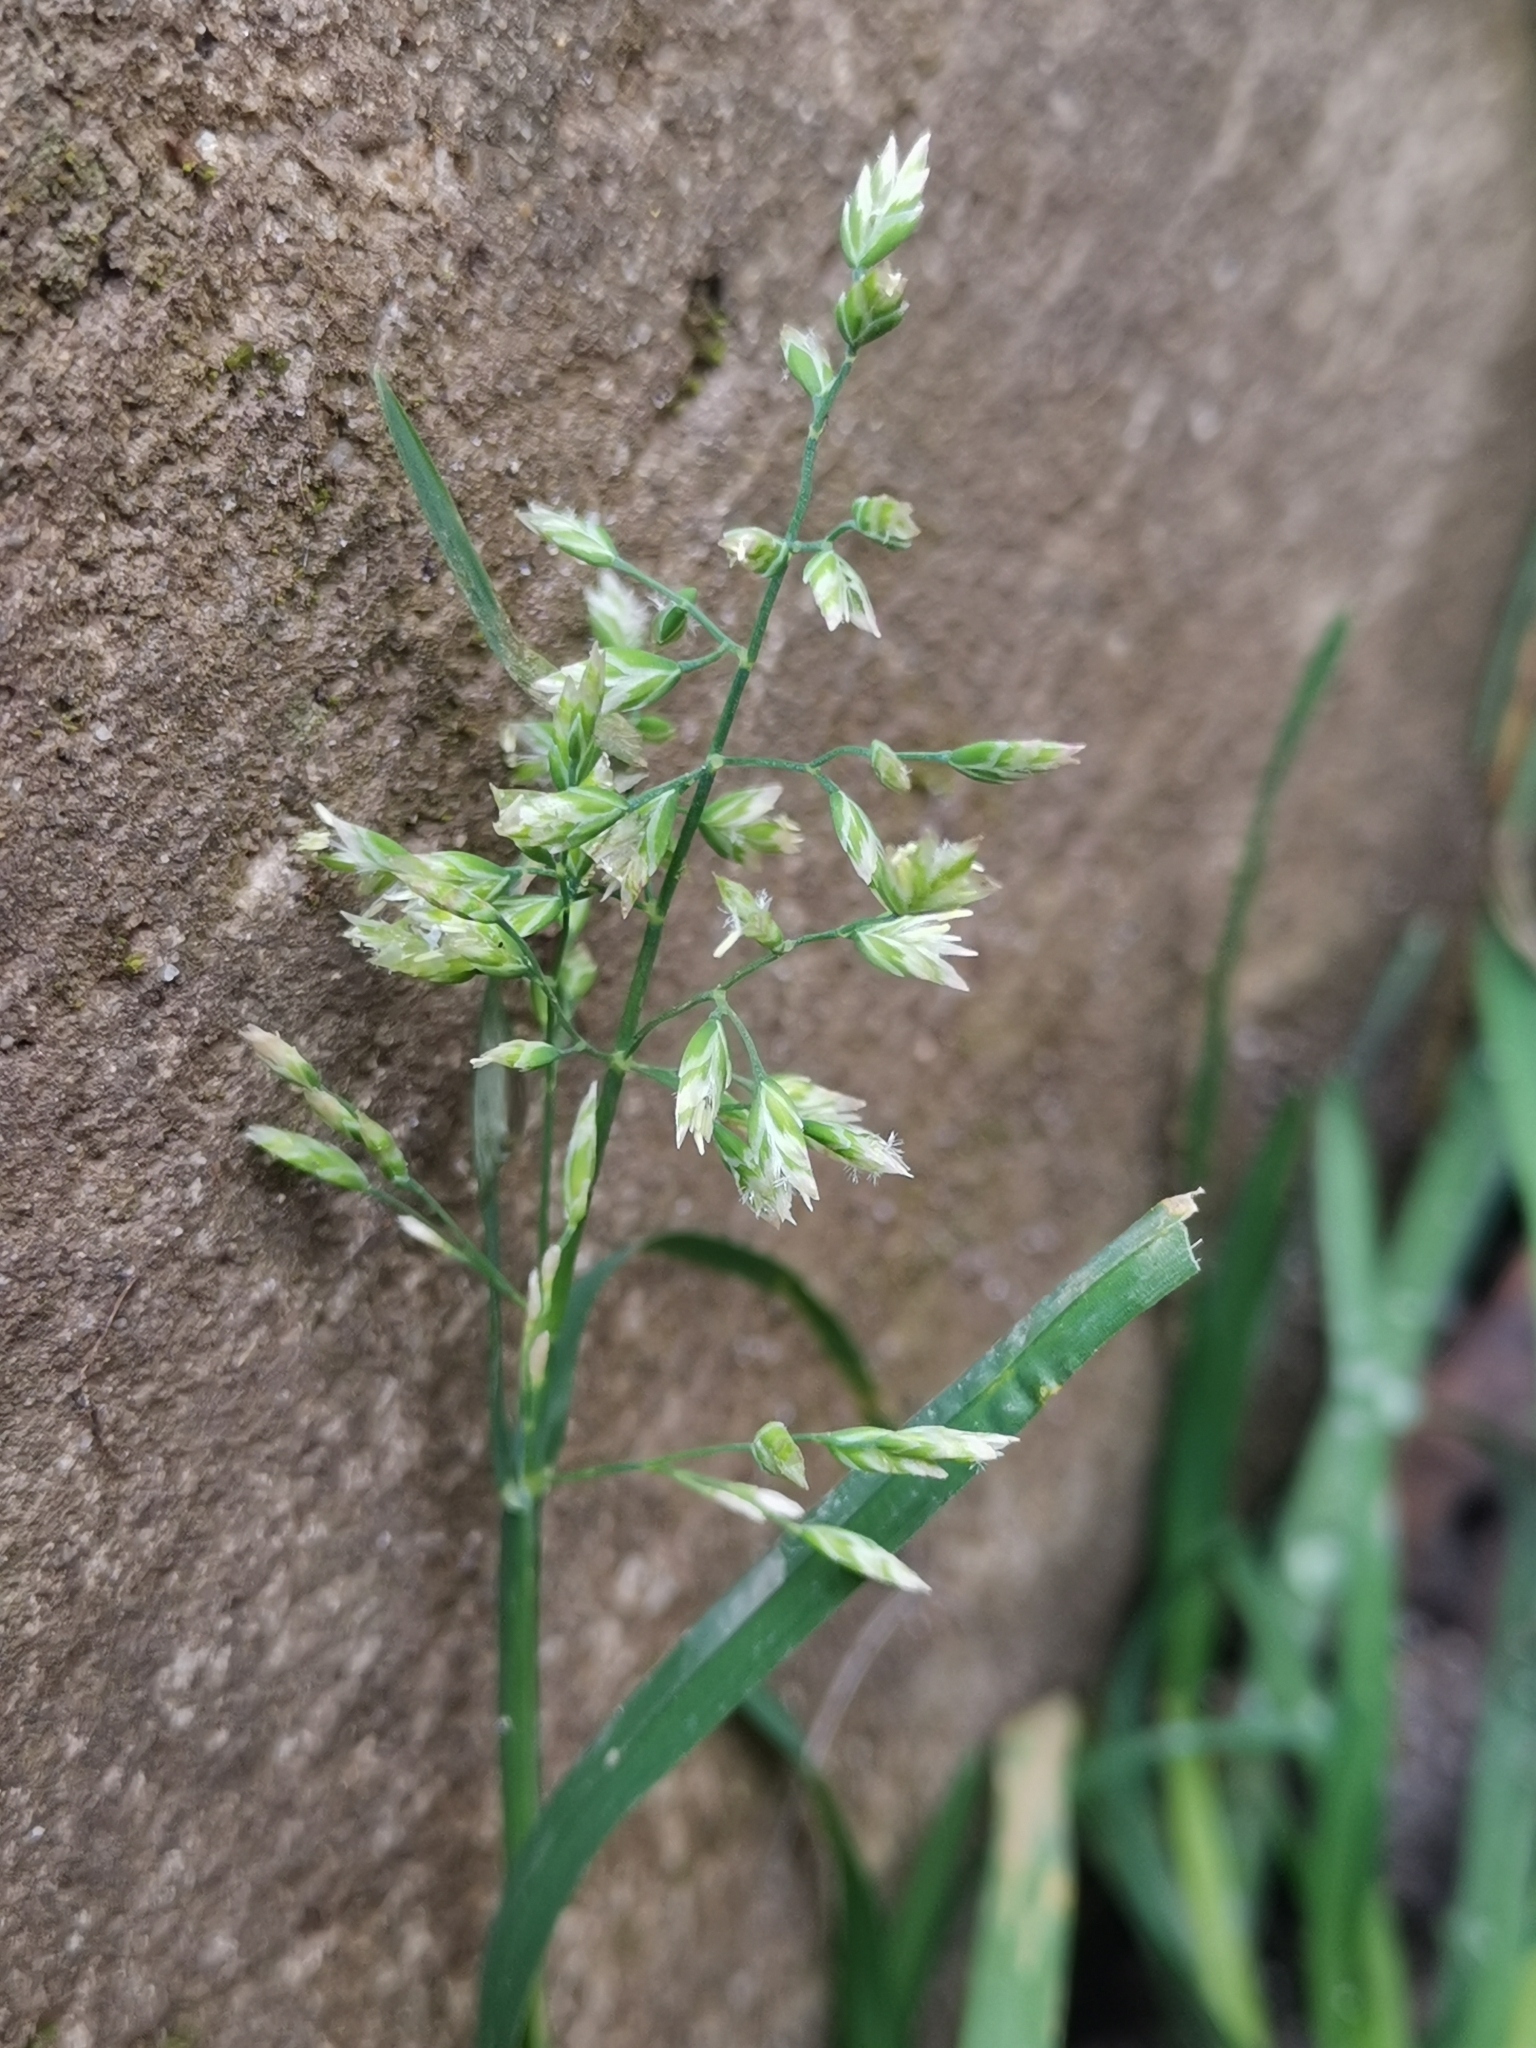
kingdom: Plantae
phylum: Tracheophyta
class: Liliopsida
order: Poales
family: Poaceae
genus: Poa
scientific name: Poa annua
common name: Annual bluegrass
